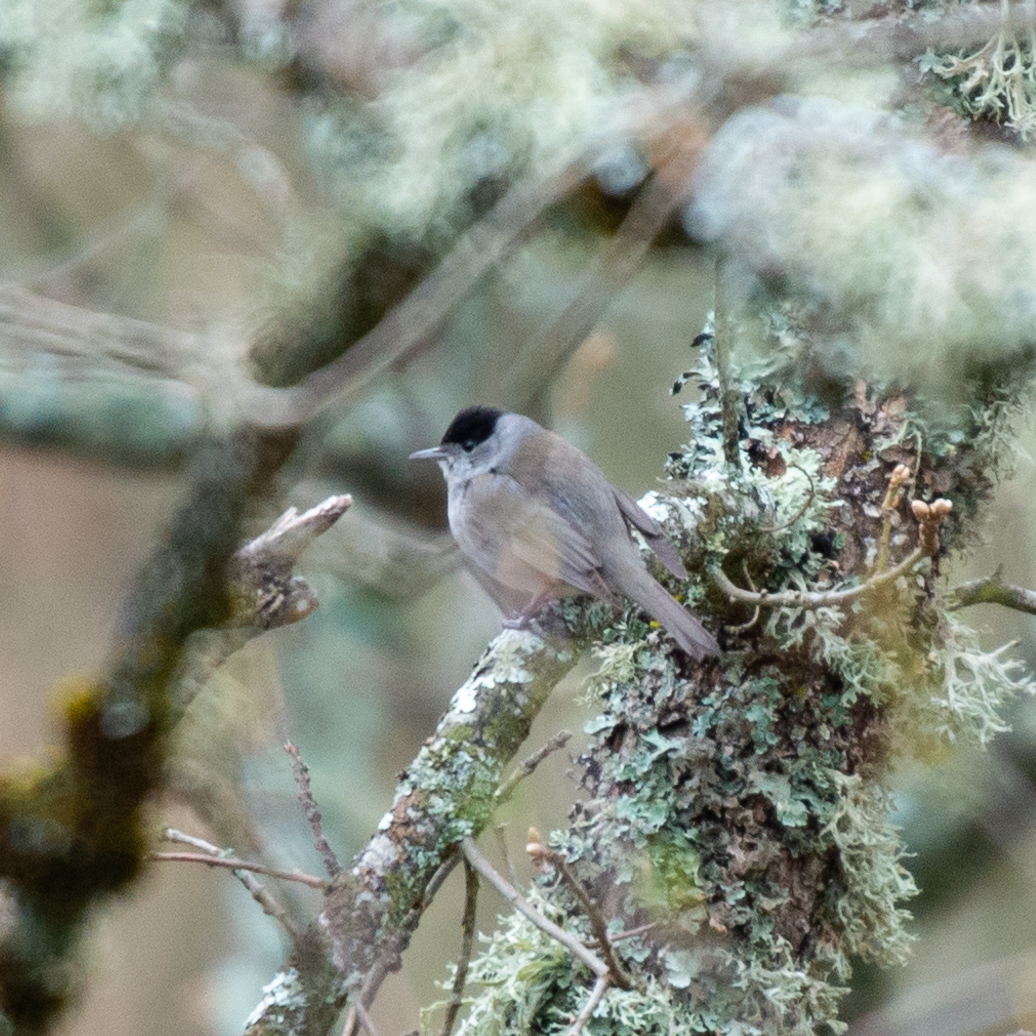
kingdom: Animalia
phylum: Chordata
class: Aves
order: Passeriformes
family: Sylviidae
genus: Sylvia
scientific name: Sylvia atricapilla
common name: Eurasian blackcap
